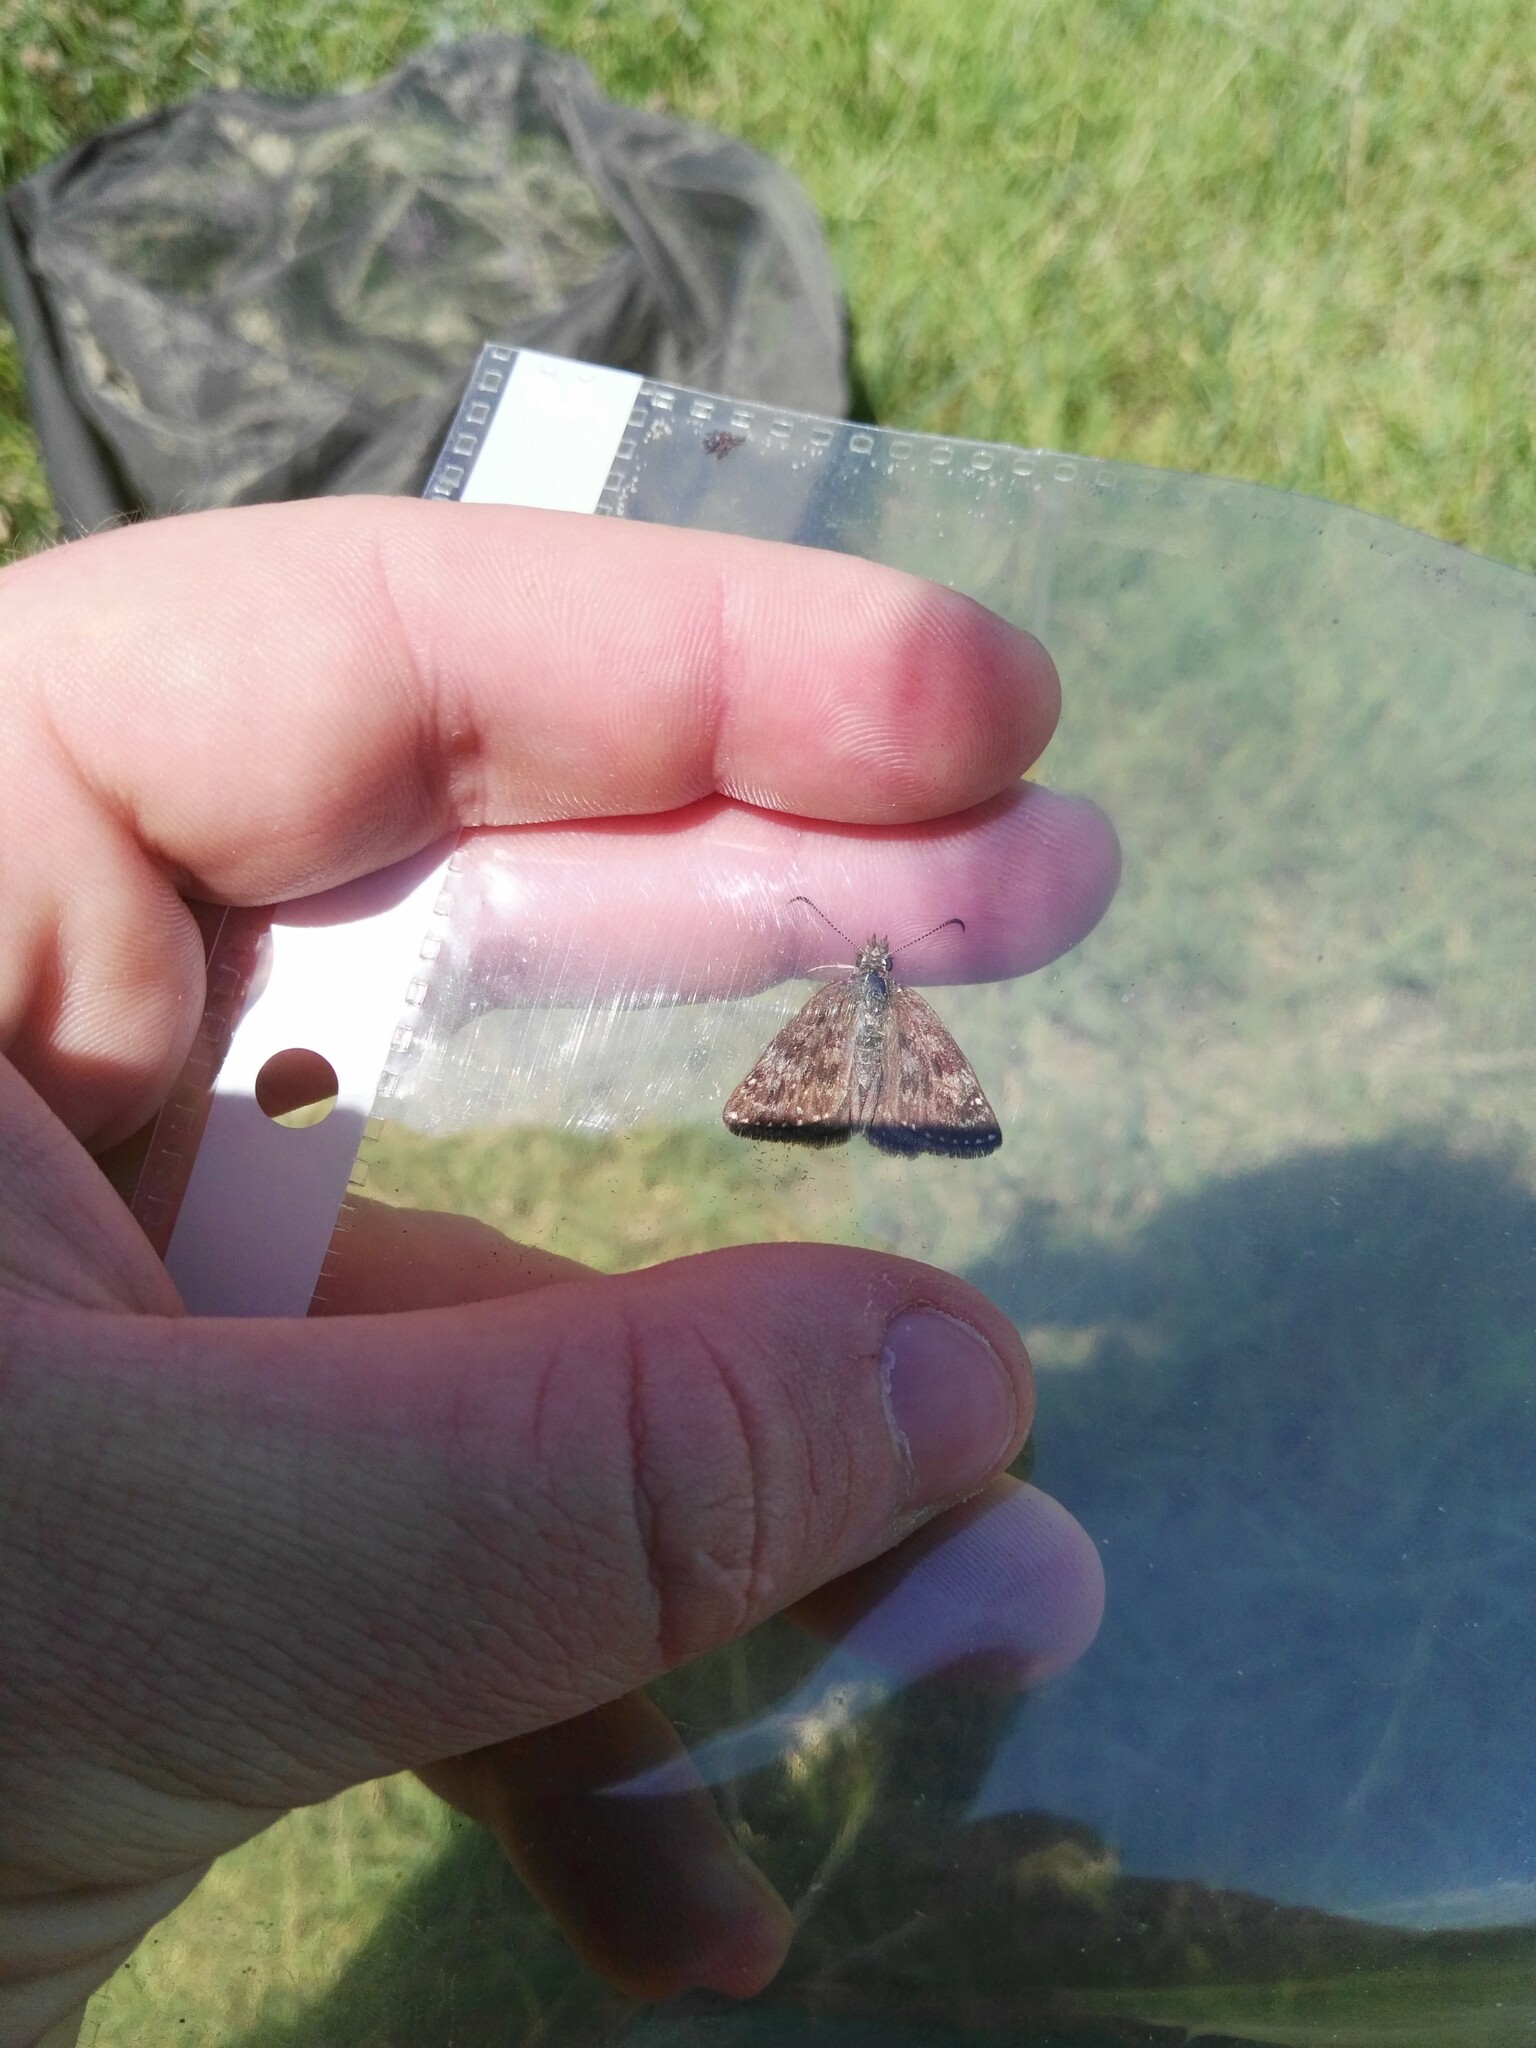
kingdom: Animalia
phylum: Arthropoda
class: Insecta
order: Lepidoptera
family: Hesperiidae
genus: Erynnis
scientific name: Erynnis tages
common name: Dingy skipper
